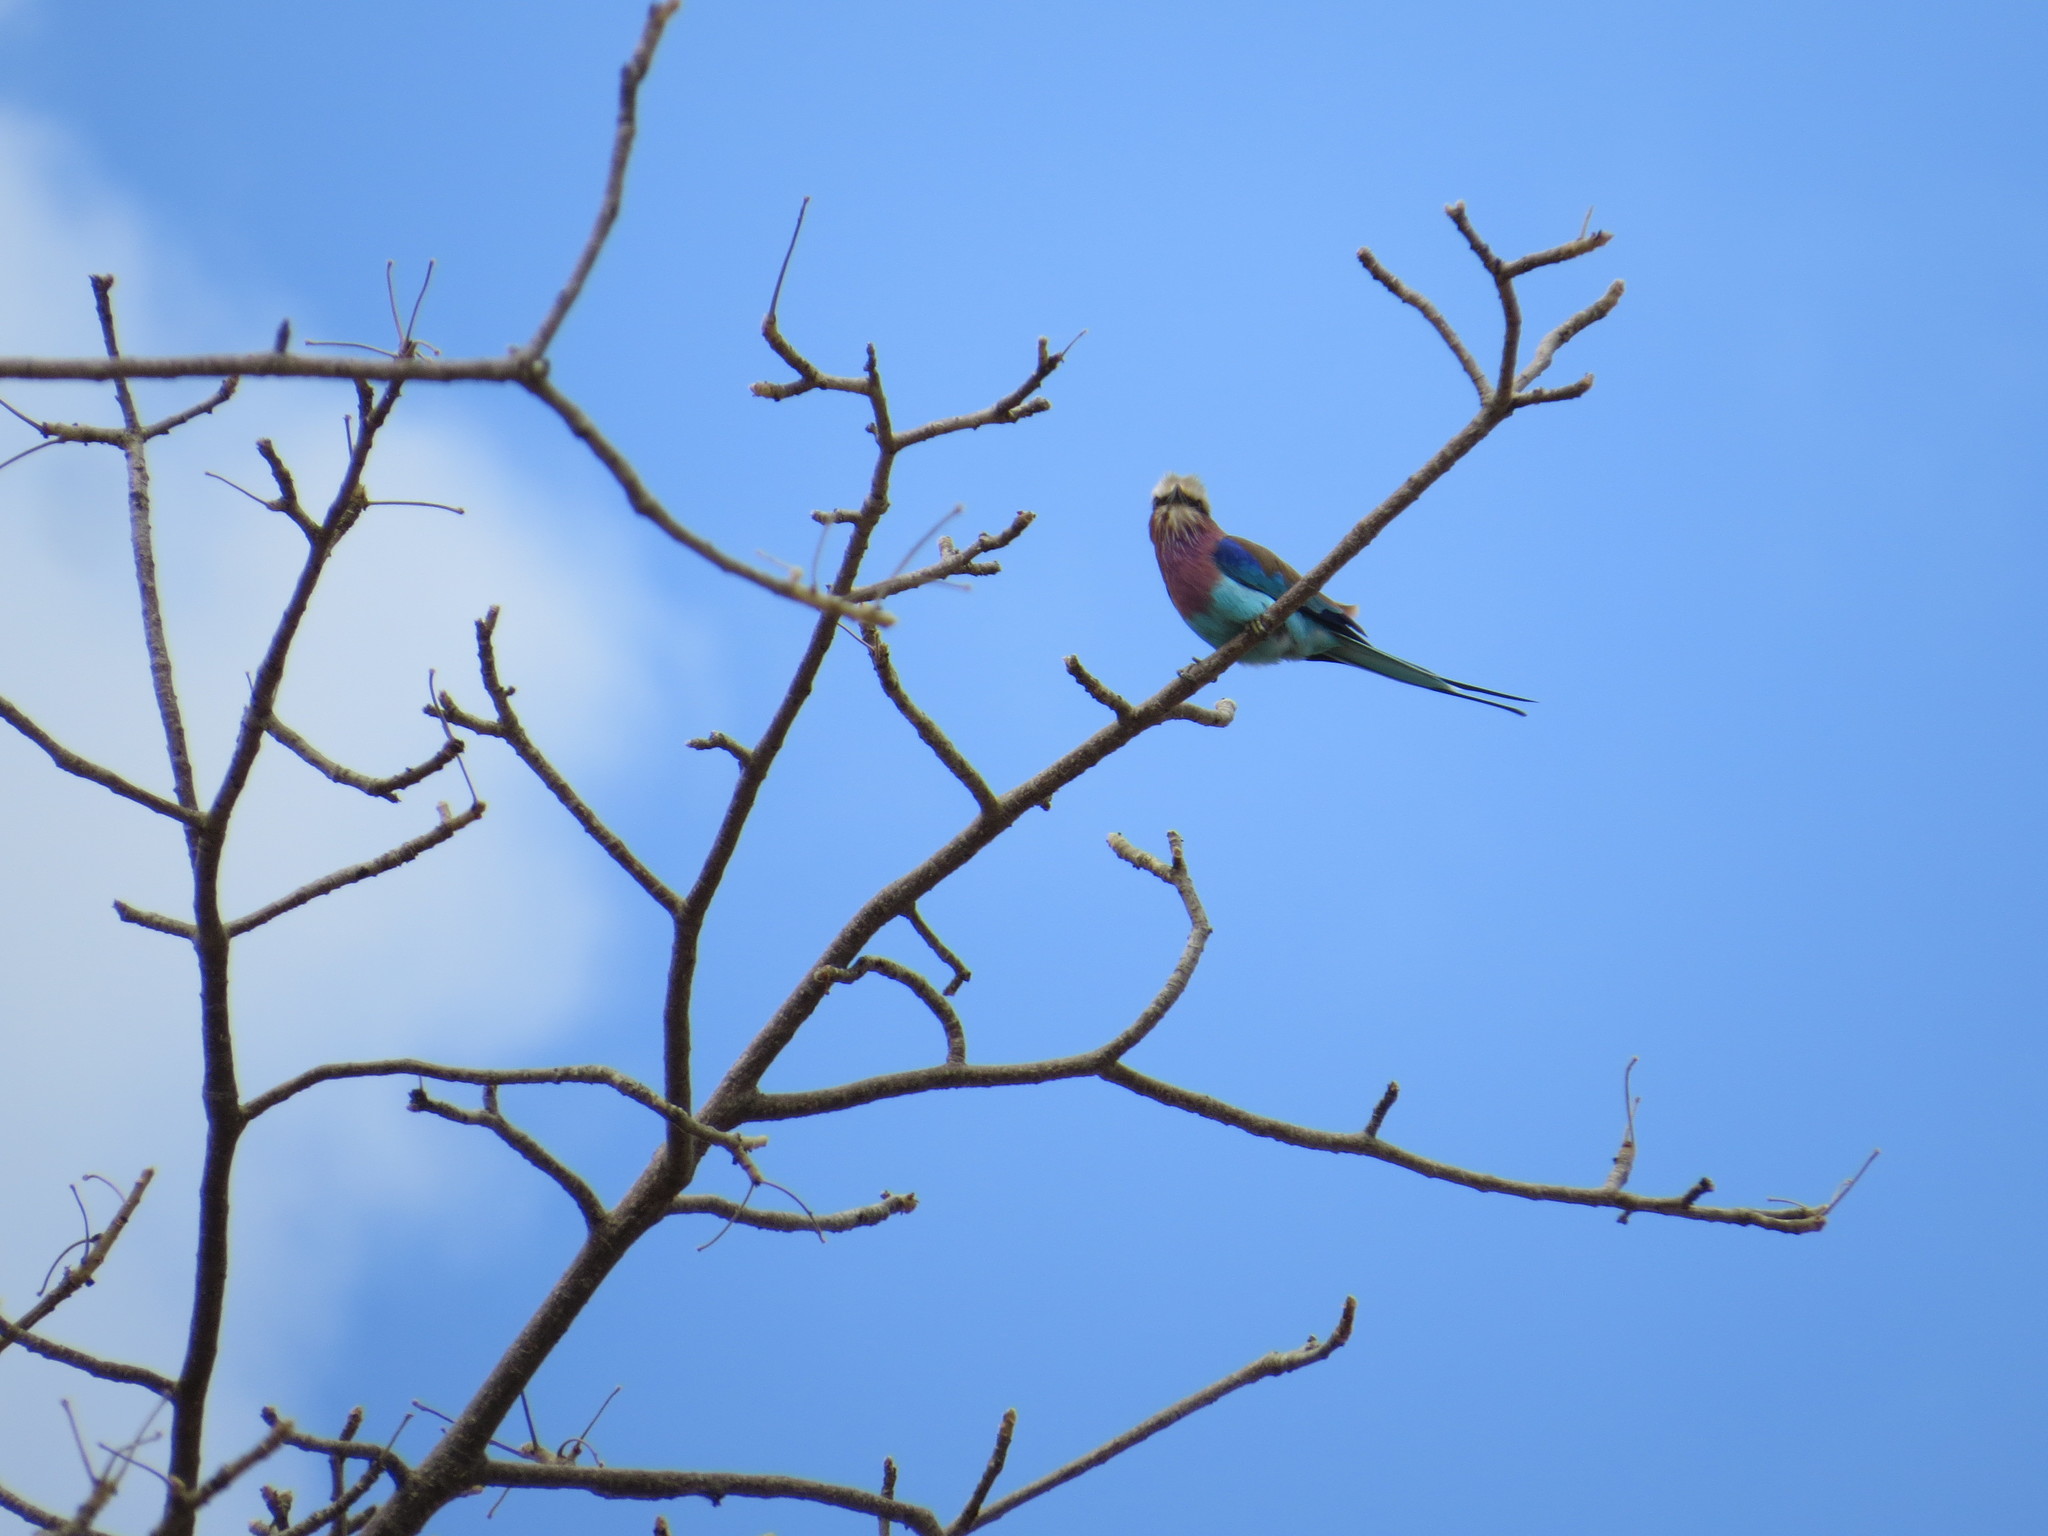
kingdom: Animalia
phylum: Chordata
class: Aves
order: Coraciiformes
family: Coraciidae
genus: Coracias
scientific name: Coracias caudatus
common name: Lilac-breasted roller
